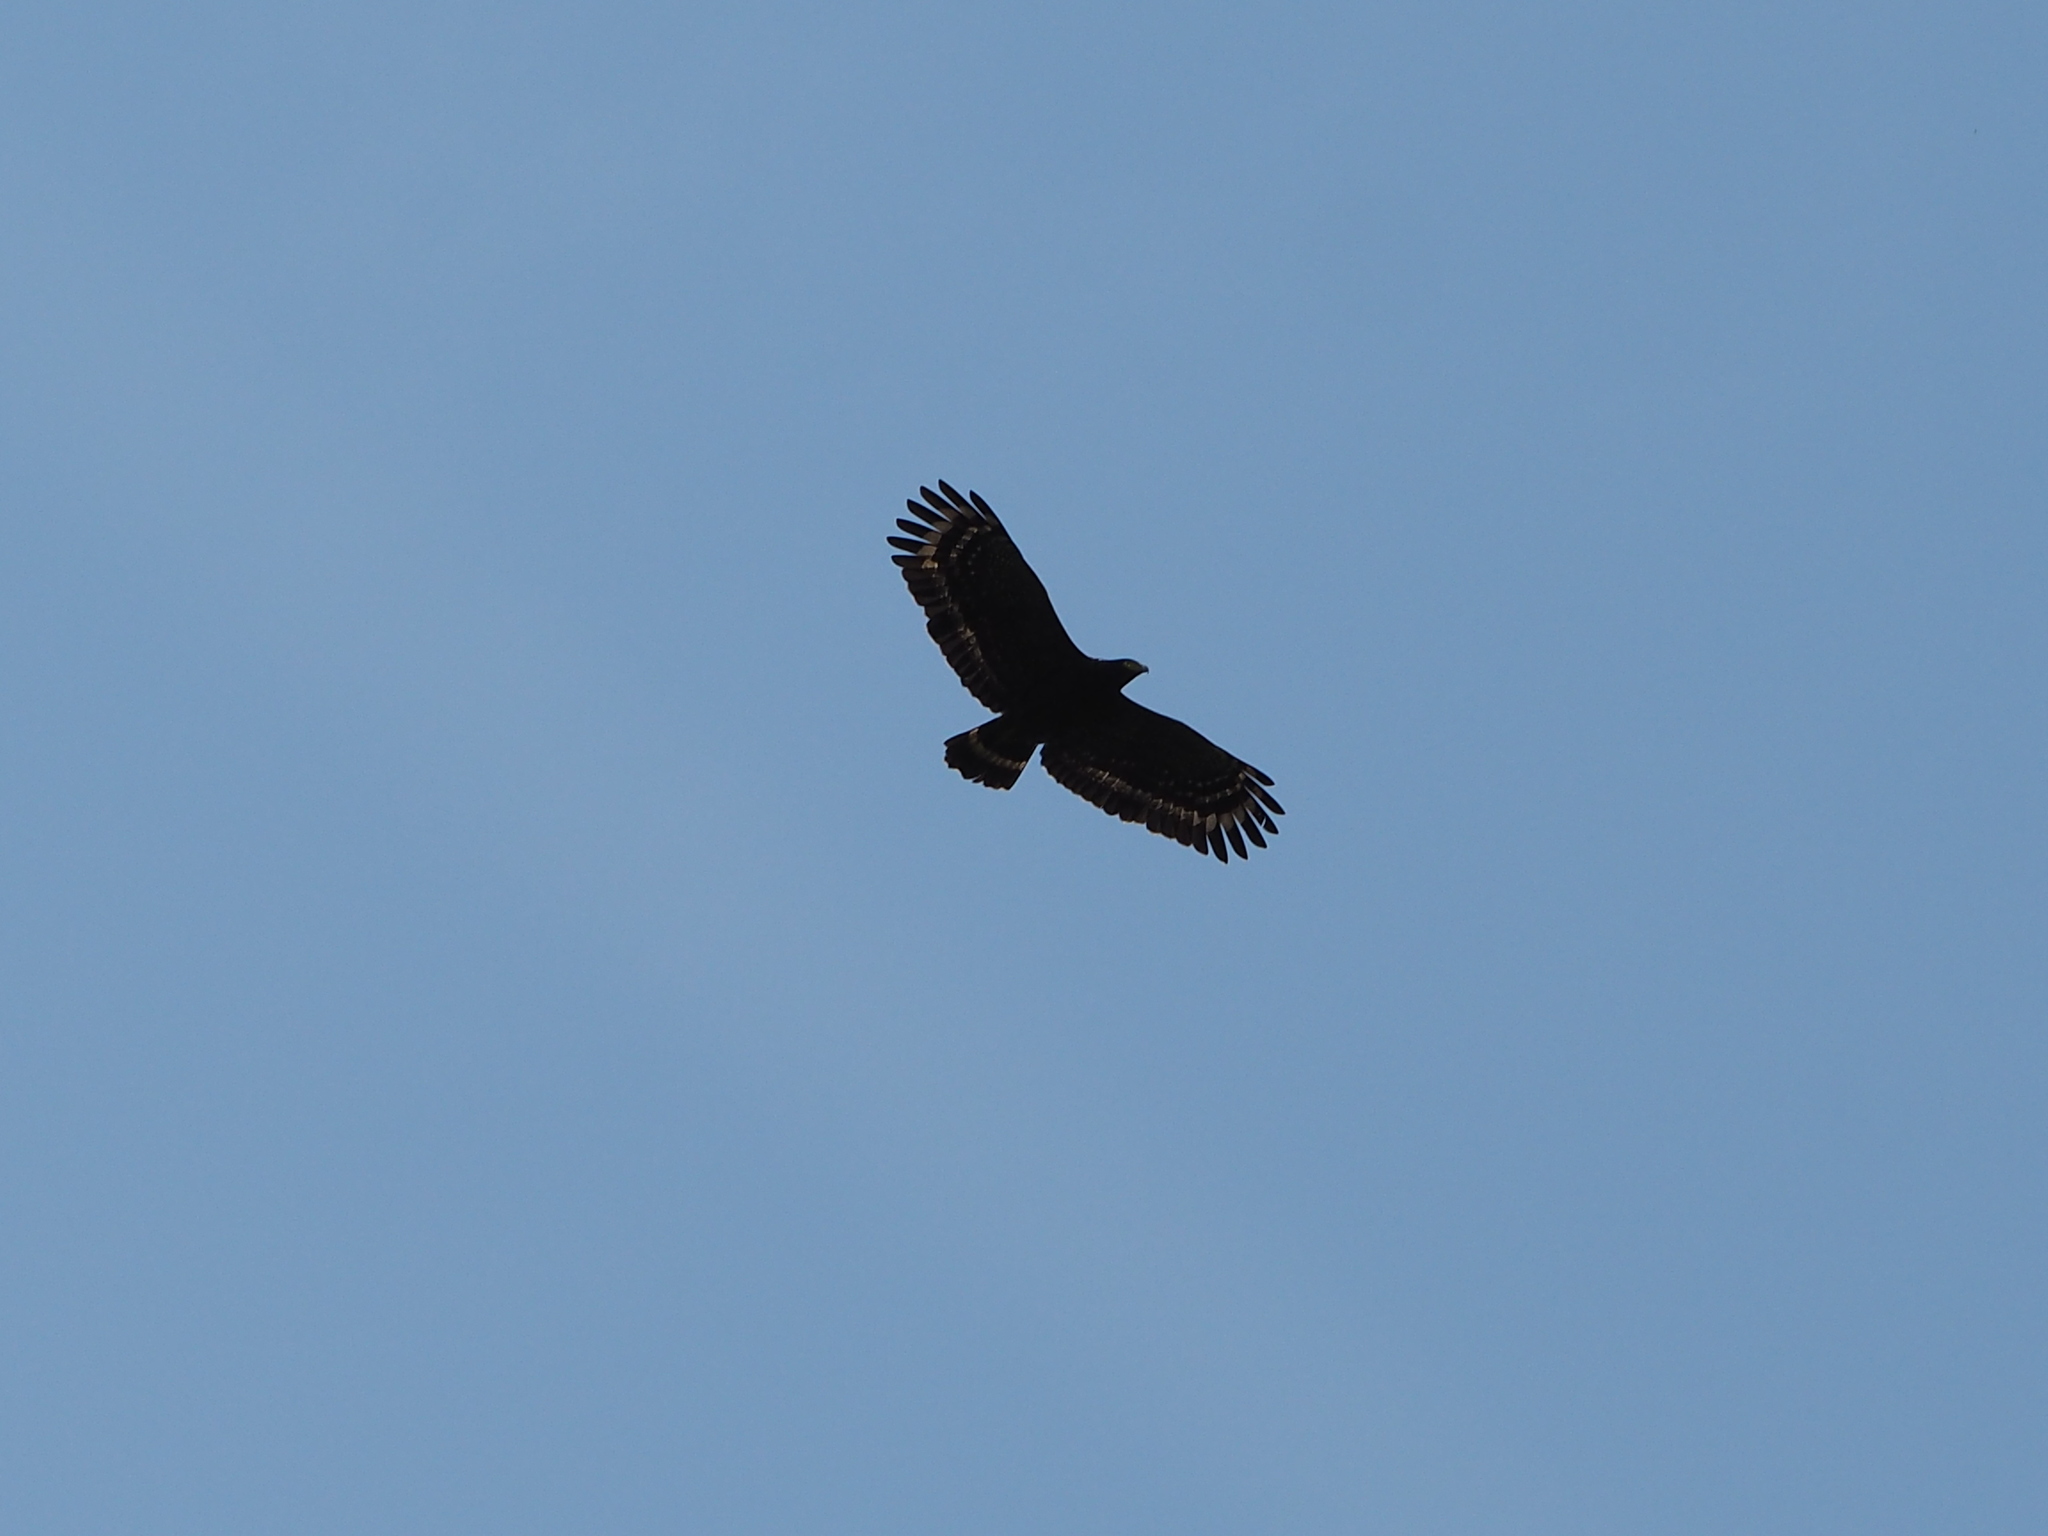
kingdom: Animalia
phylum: Chordata
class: Aves
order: Accipitriformes
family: Accipitridae
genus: Spilornis
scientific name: Spilornis cheela
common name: Crested serpent eagle
